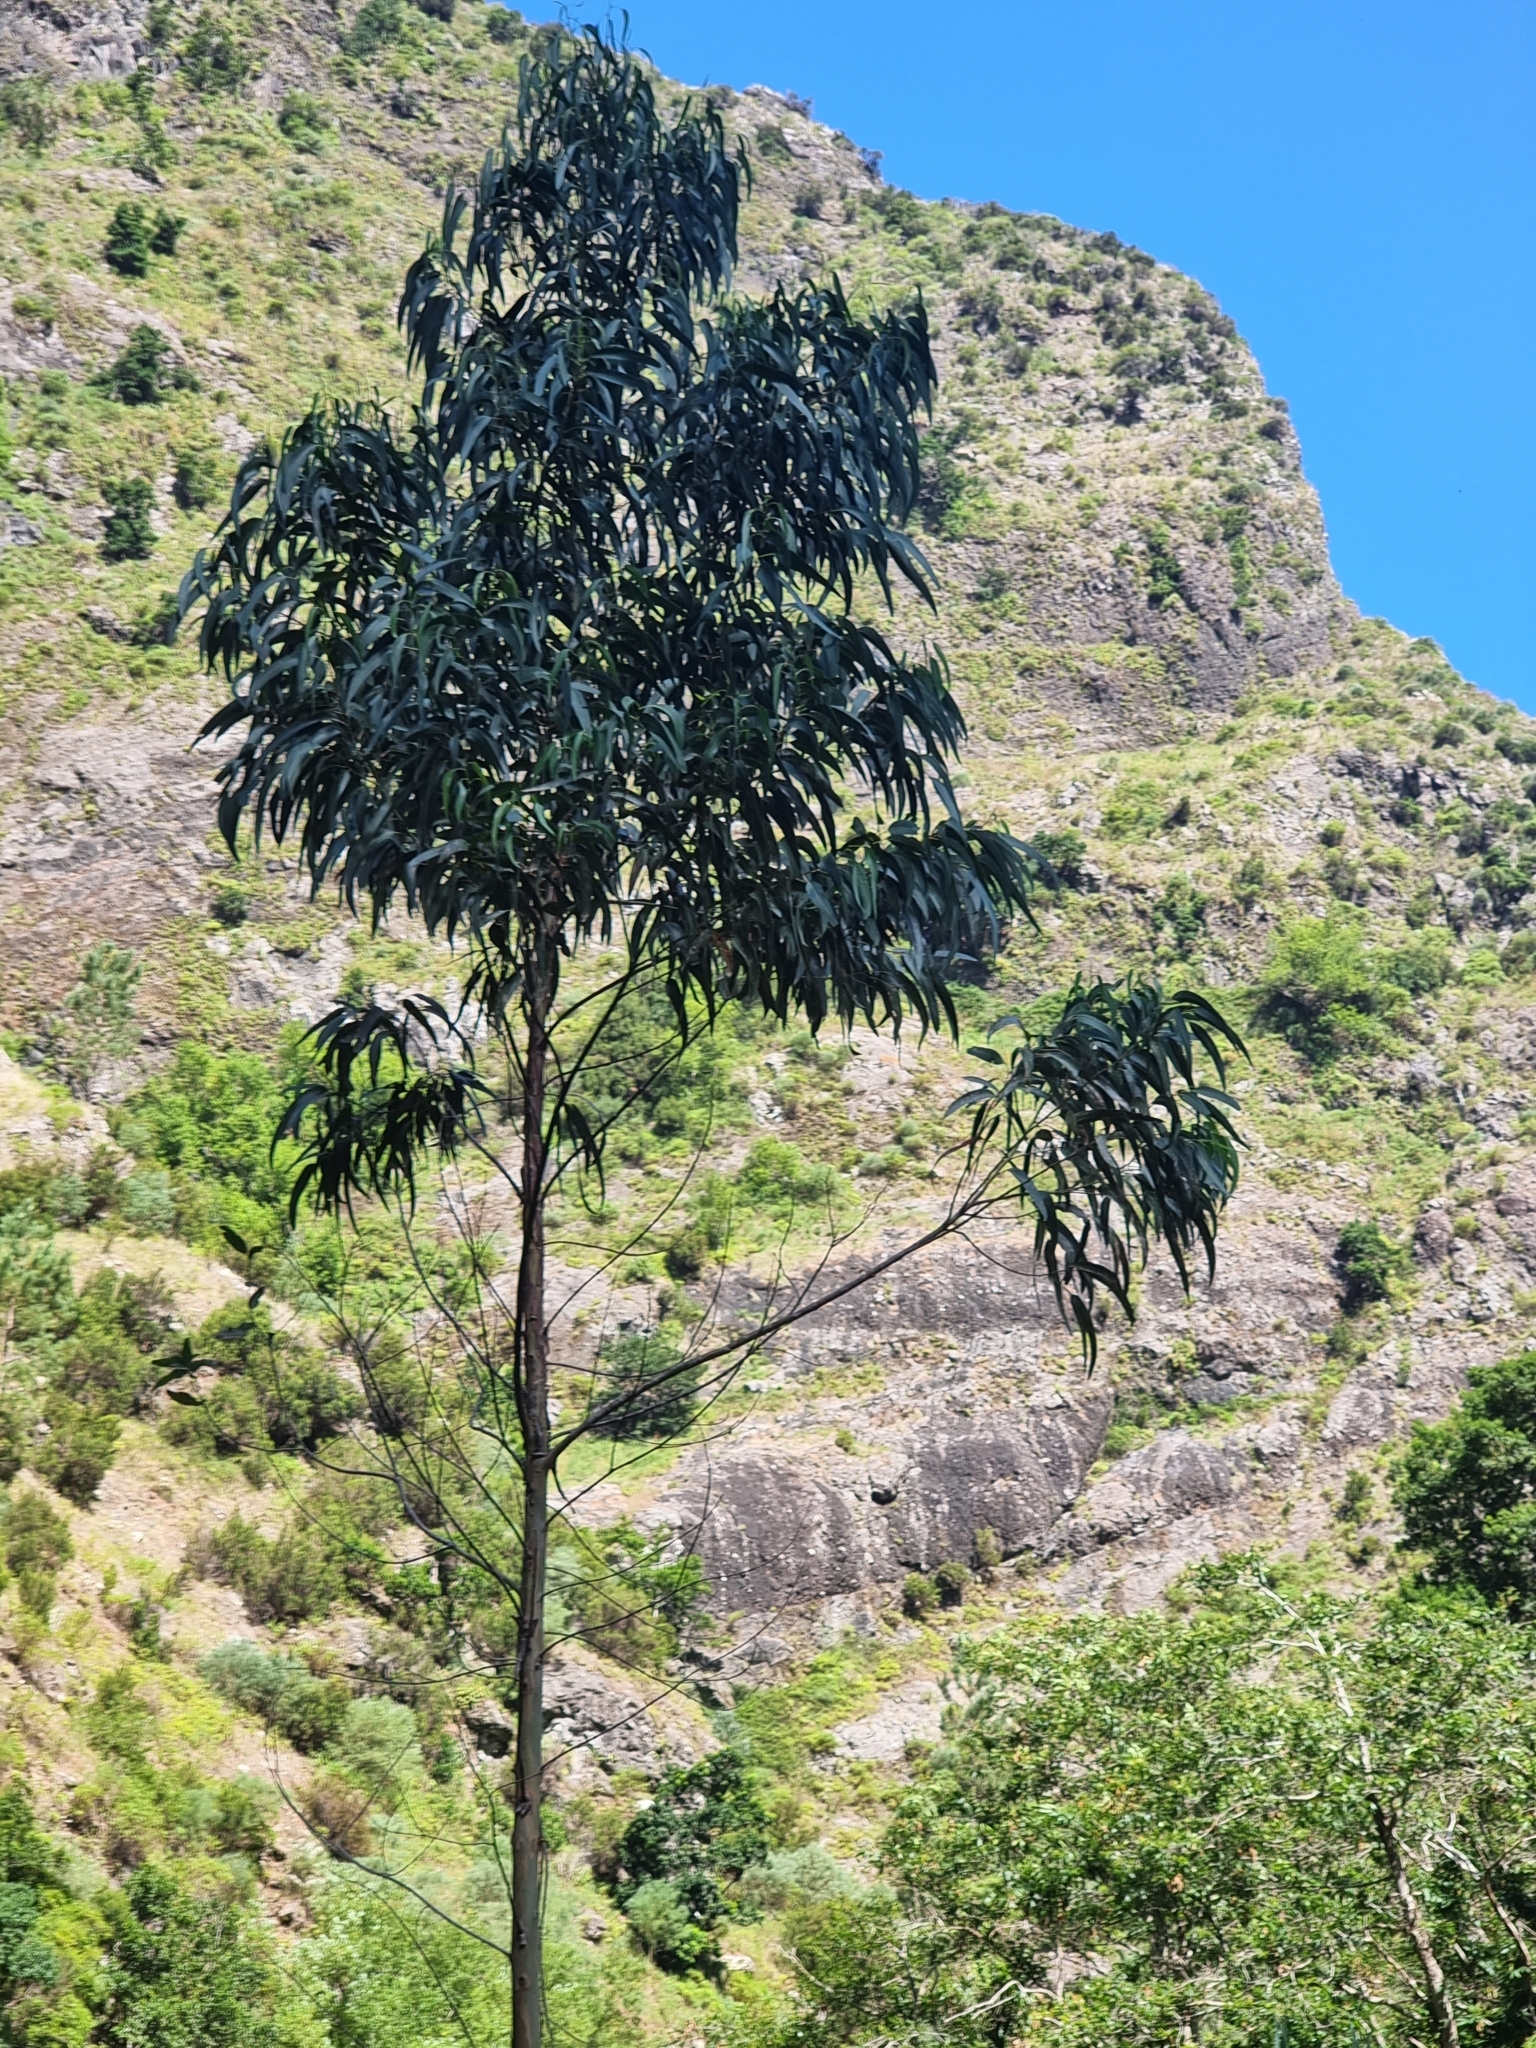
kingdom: Plantae
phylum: Tracheophyta
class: Magnoliopsida
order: Myrtales
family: Myrtaceae
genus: Eucalyptus
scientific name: Eucalyptus globulus
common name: Southern blue-gum
